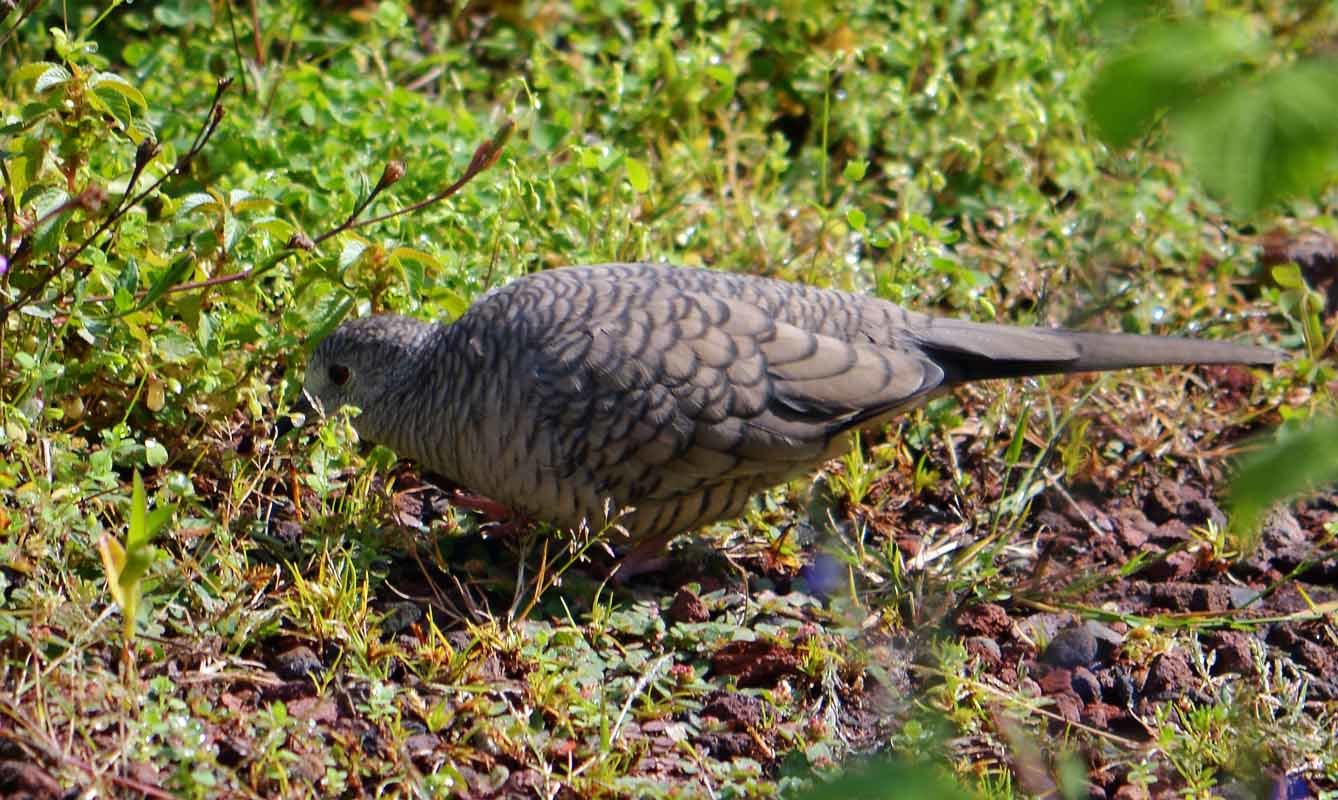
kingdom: Animalia
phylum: Chordata
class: Aves
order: Columbiformes
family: Columbidae
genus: Columbina
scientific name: Columbina inca
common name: Inca dove
